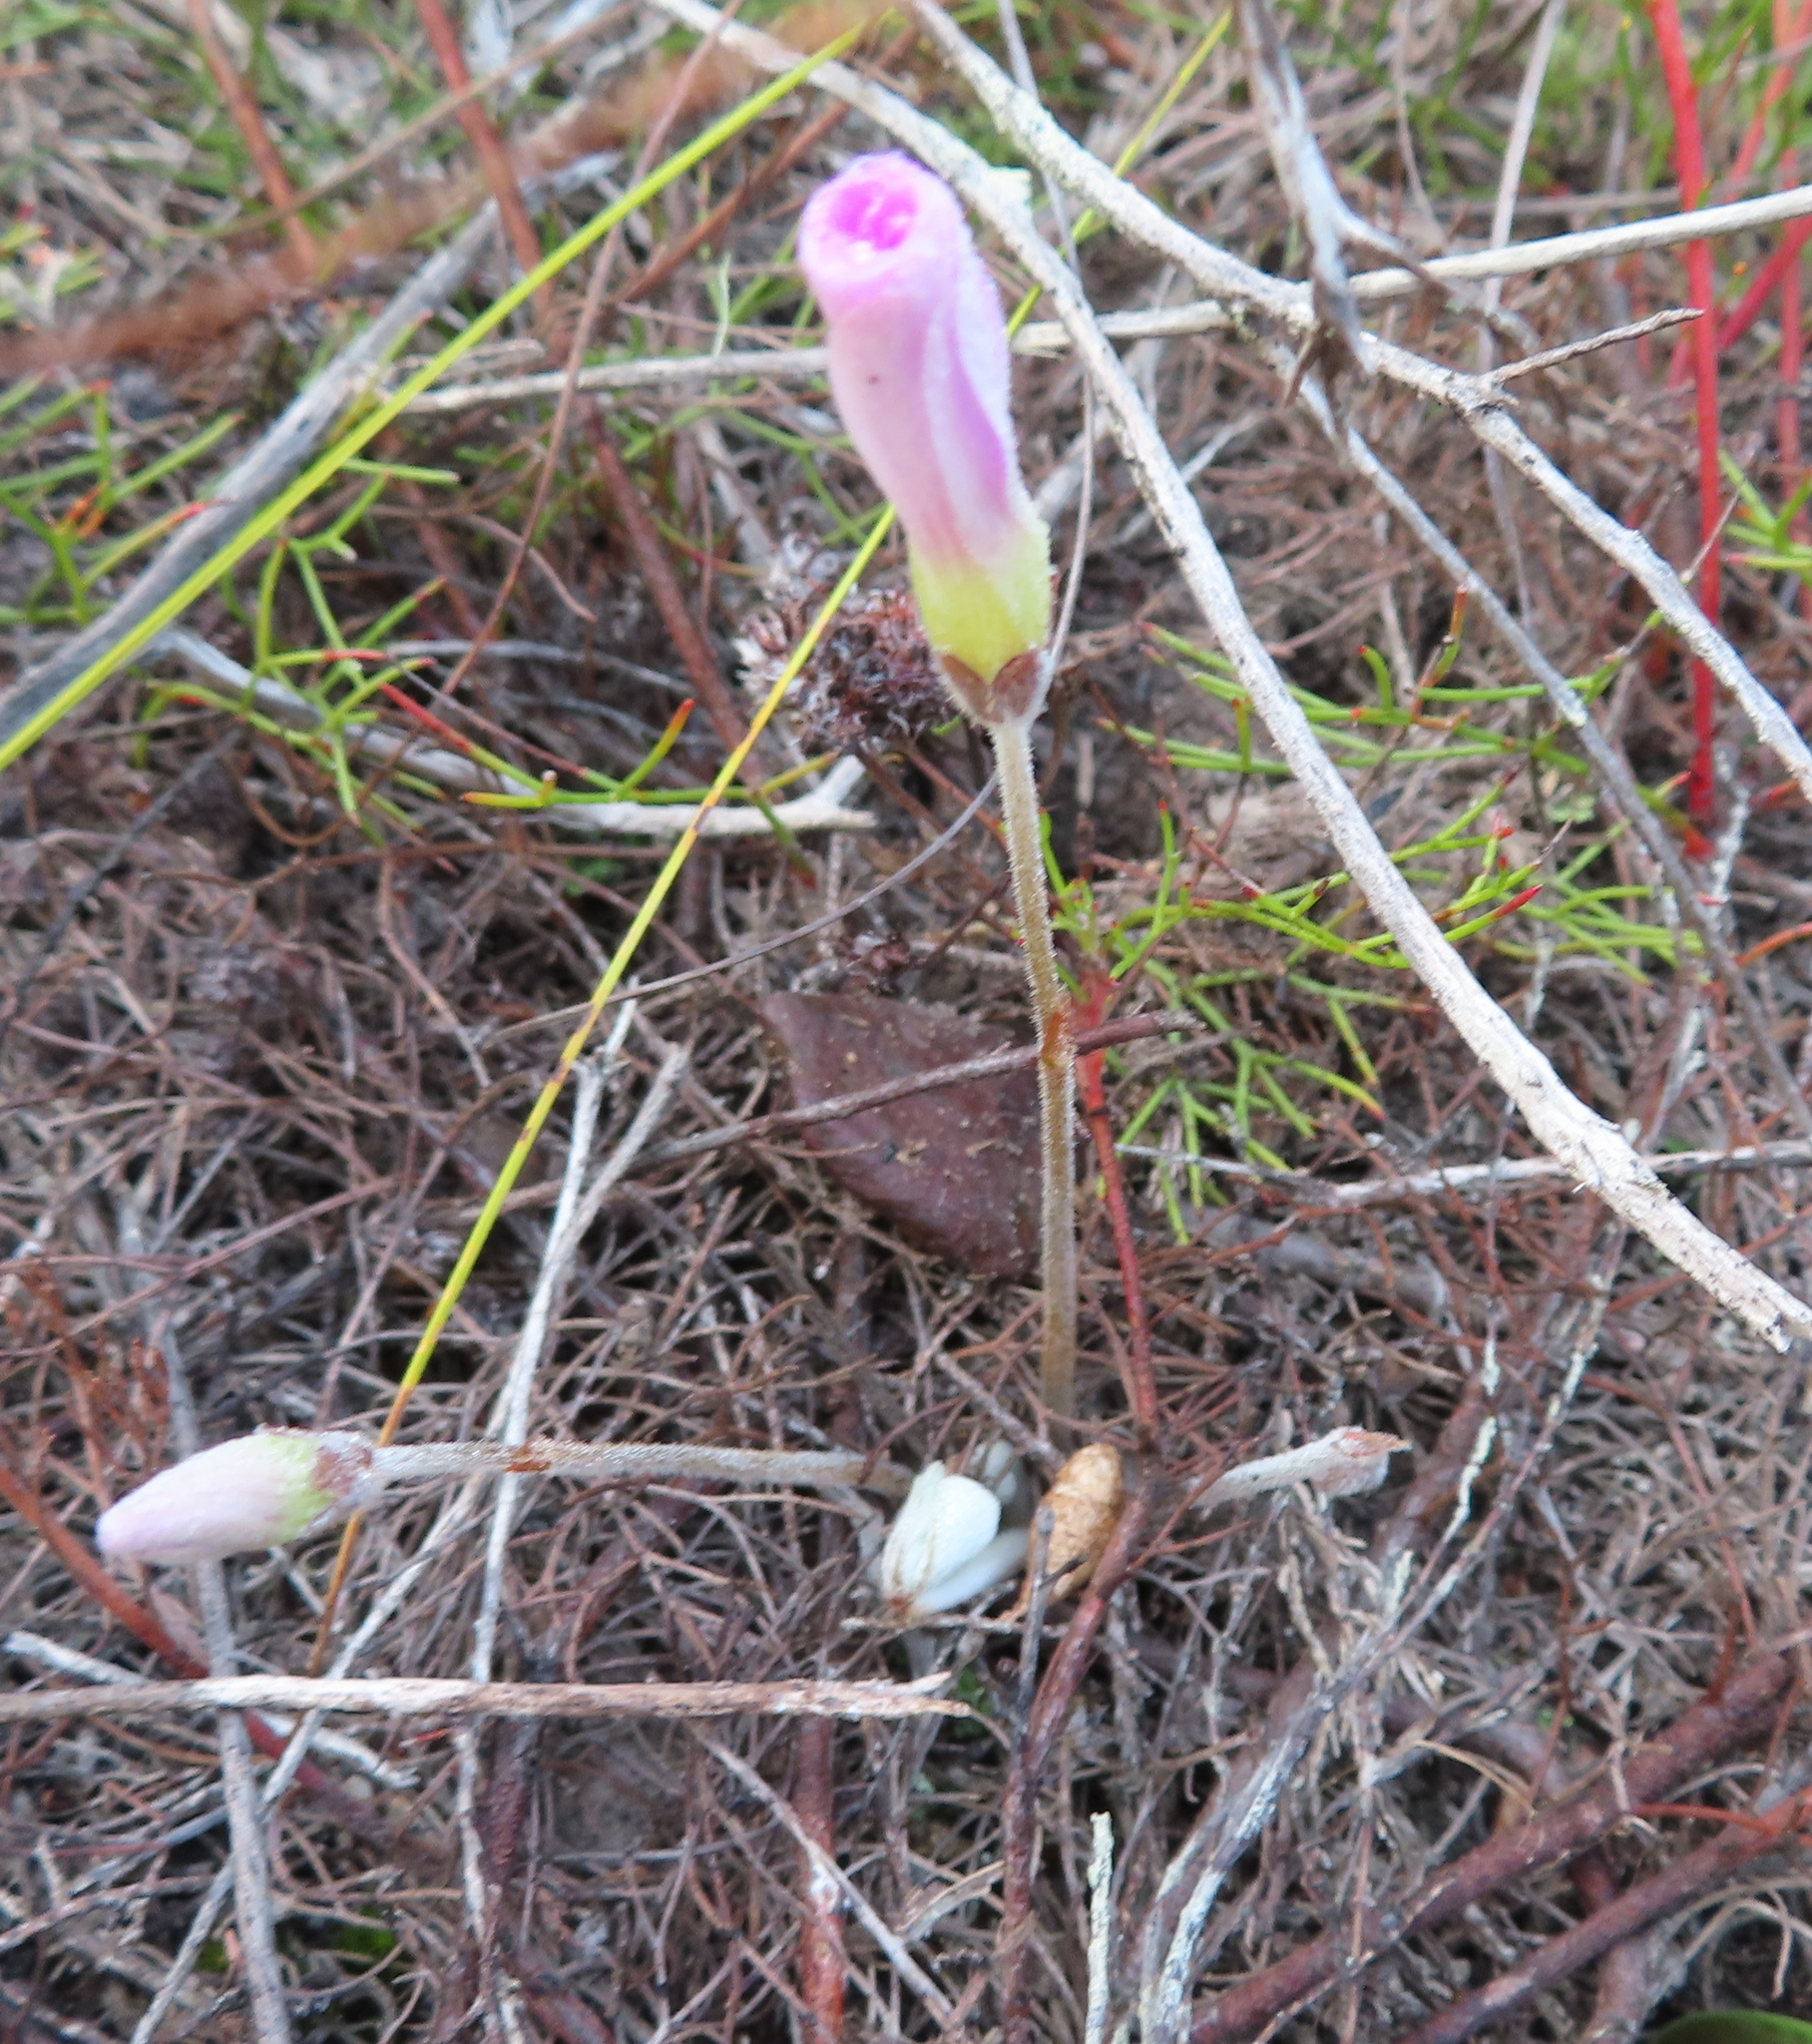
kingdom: Plantae
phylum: Tracheophyta
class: Magnoliopsida
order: Oxalidales
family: Oxalidaceae
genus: Oxalis
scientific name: Oxalis truncatula
